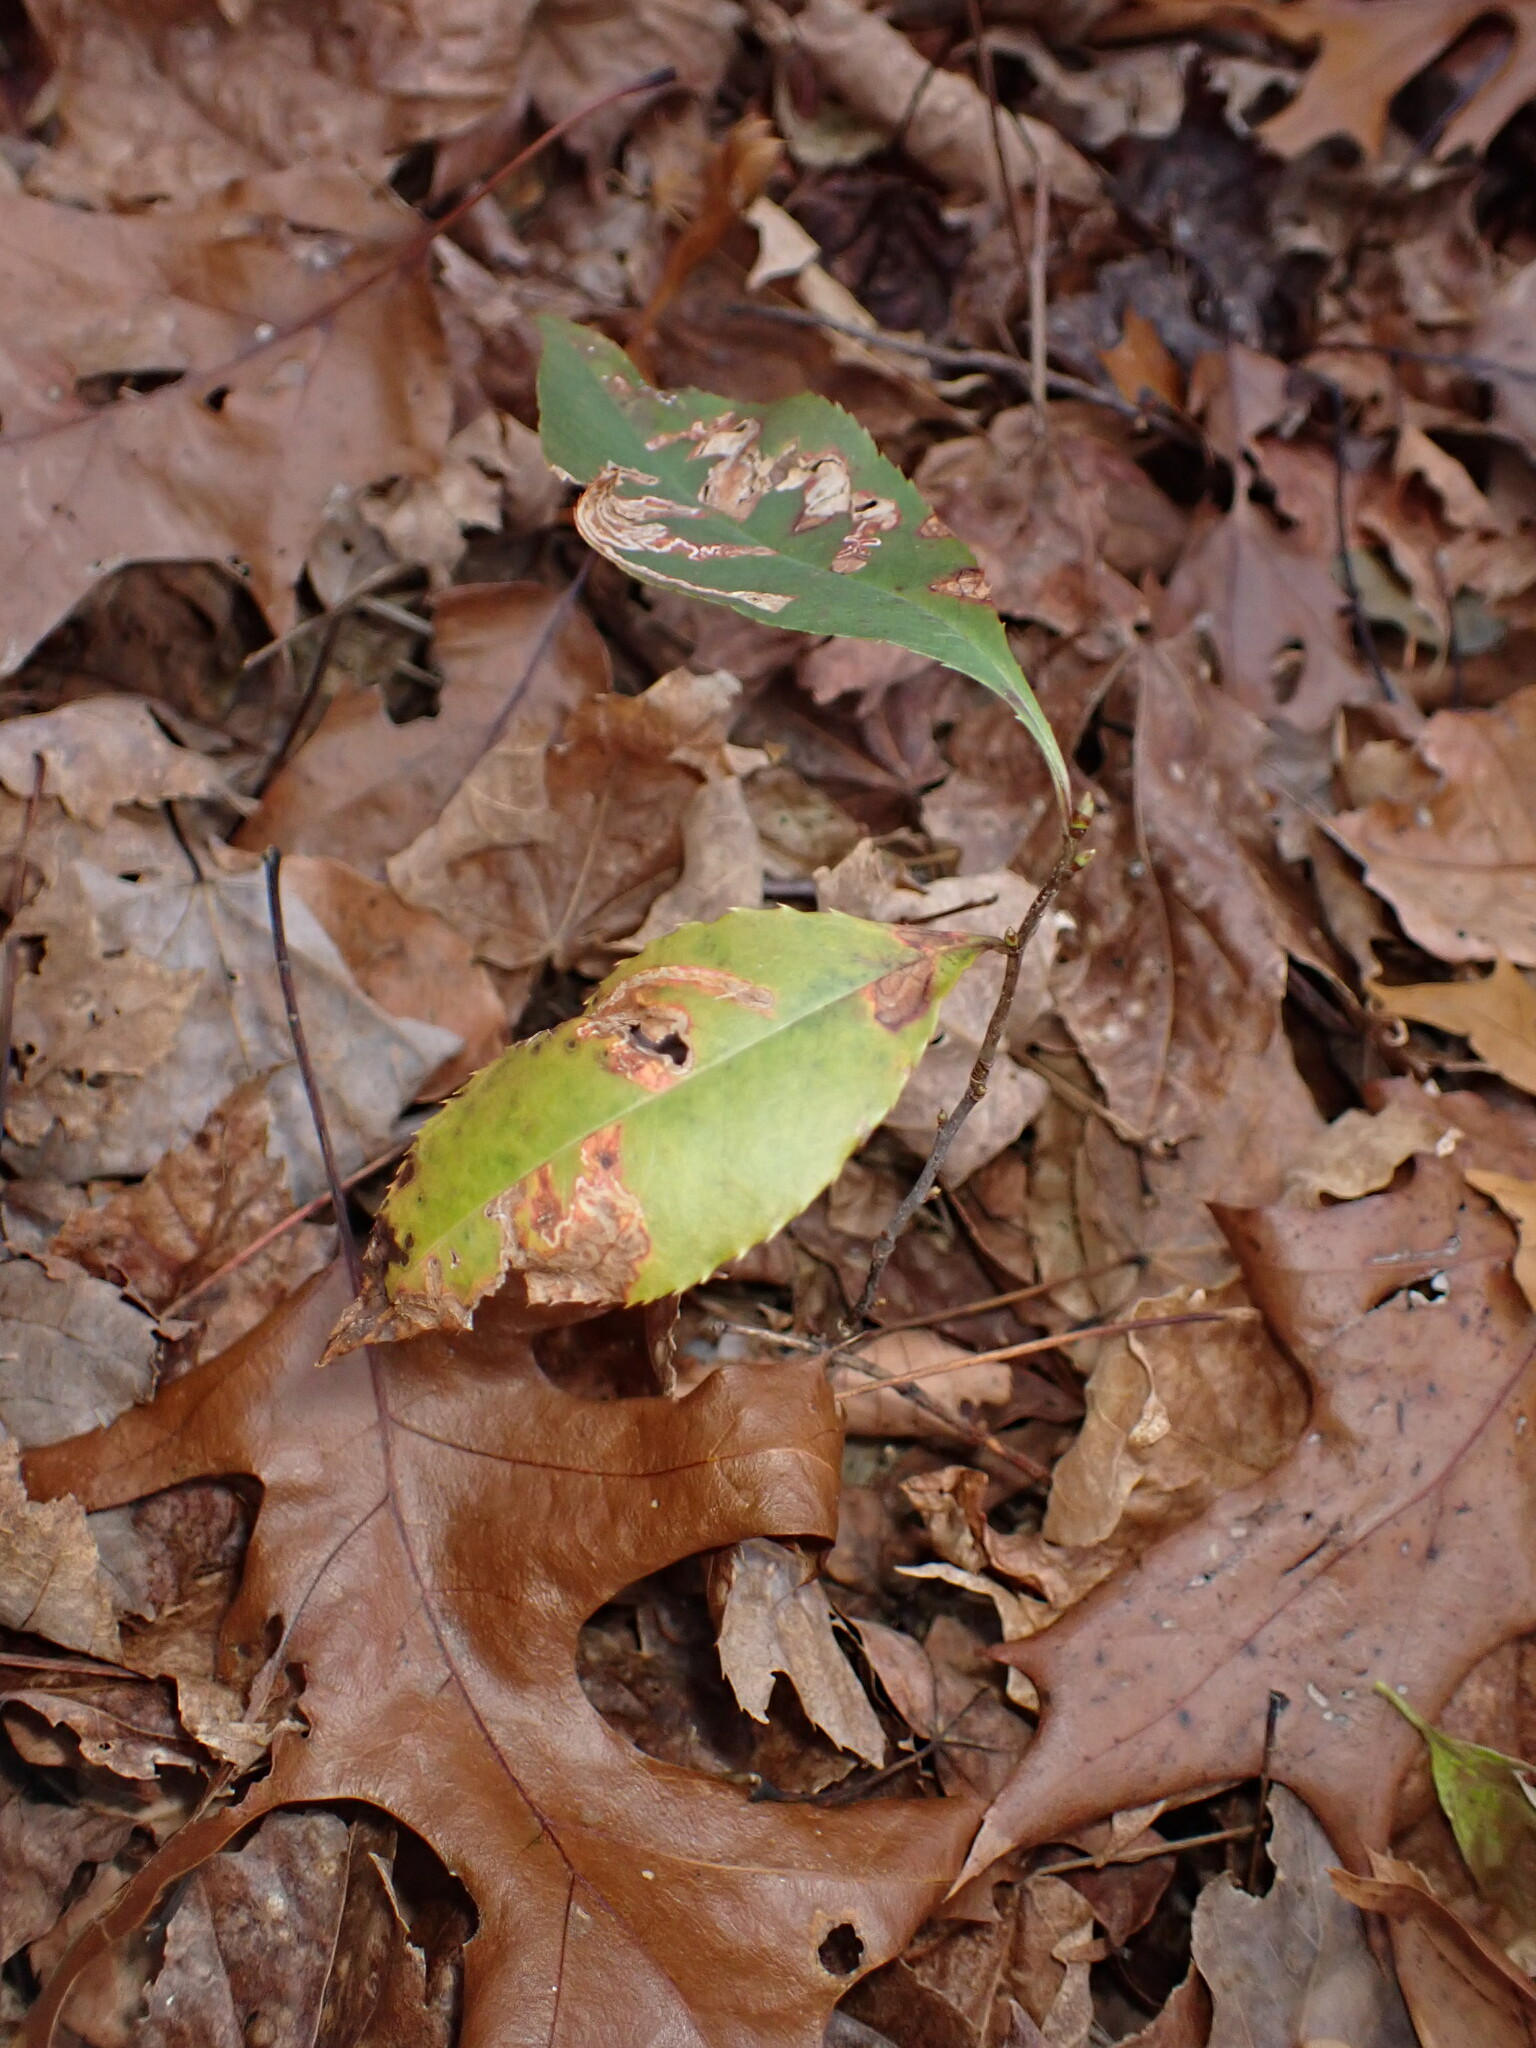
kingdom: Plantae
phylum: Tracheophyta
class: Magnoliopsida
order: Rosales
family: Rosaceae
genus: Prunus
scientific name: Prunus serotina
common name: Black cherry
